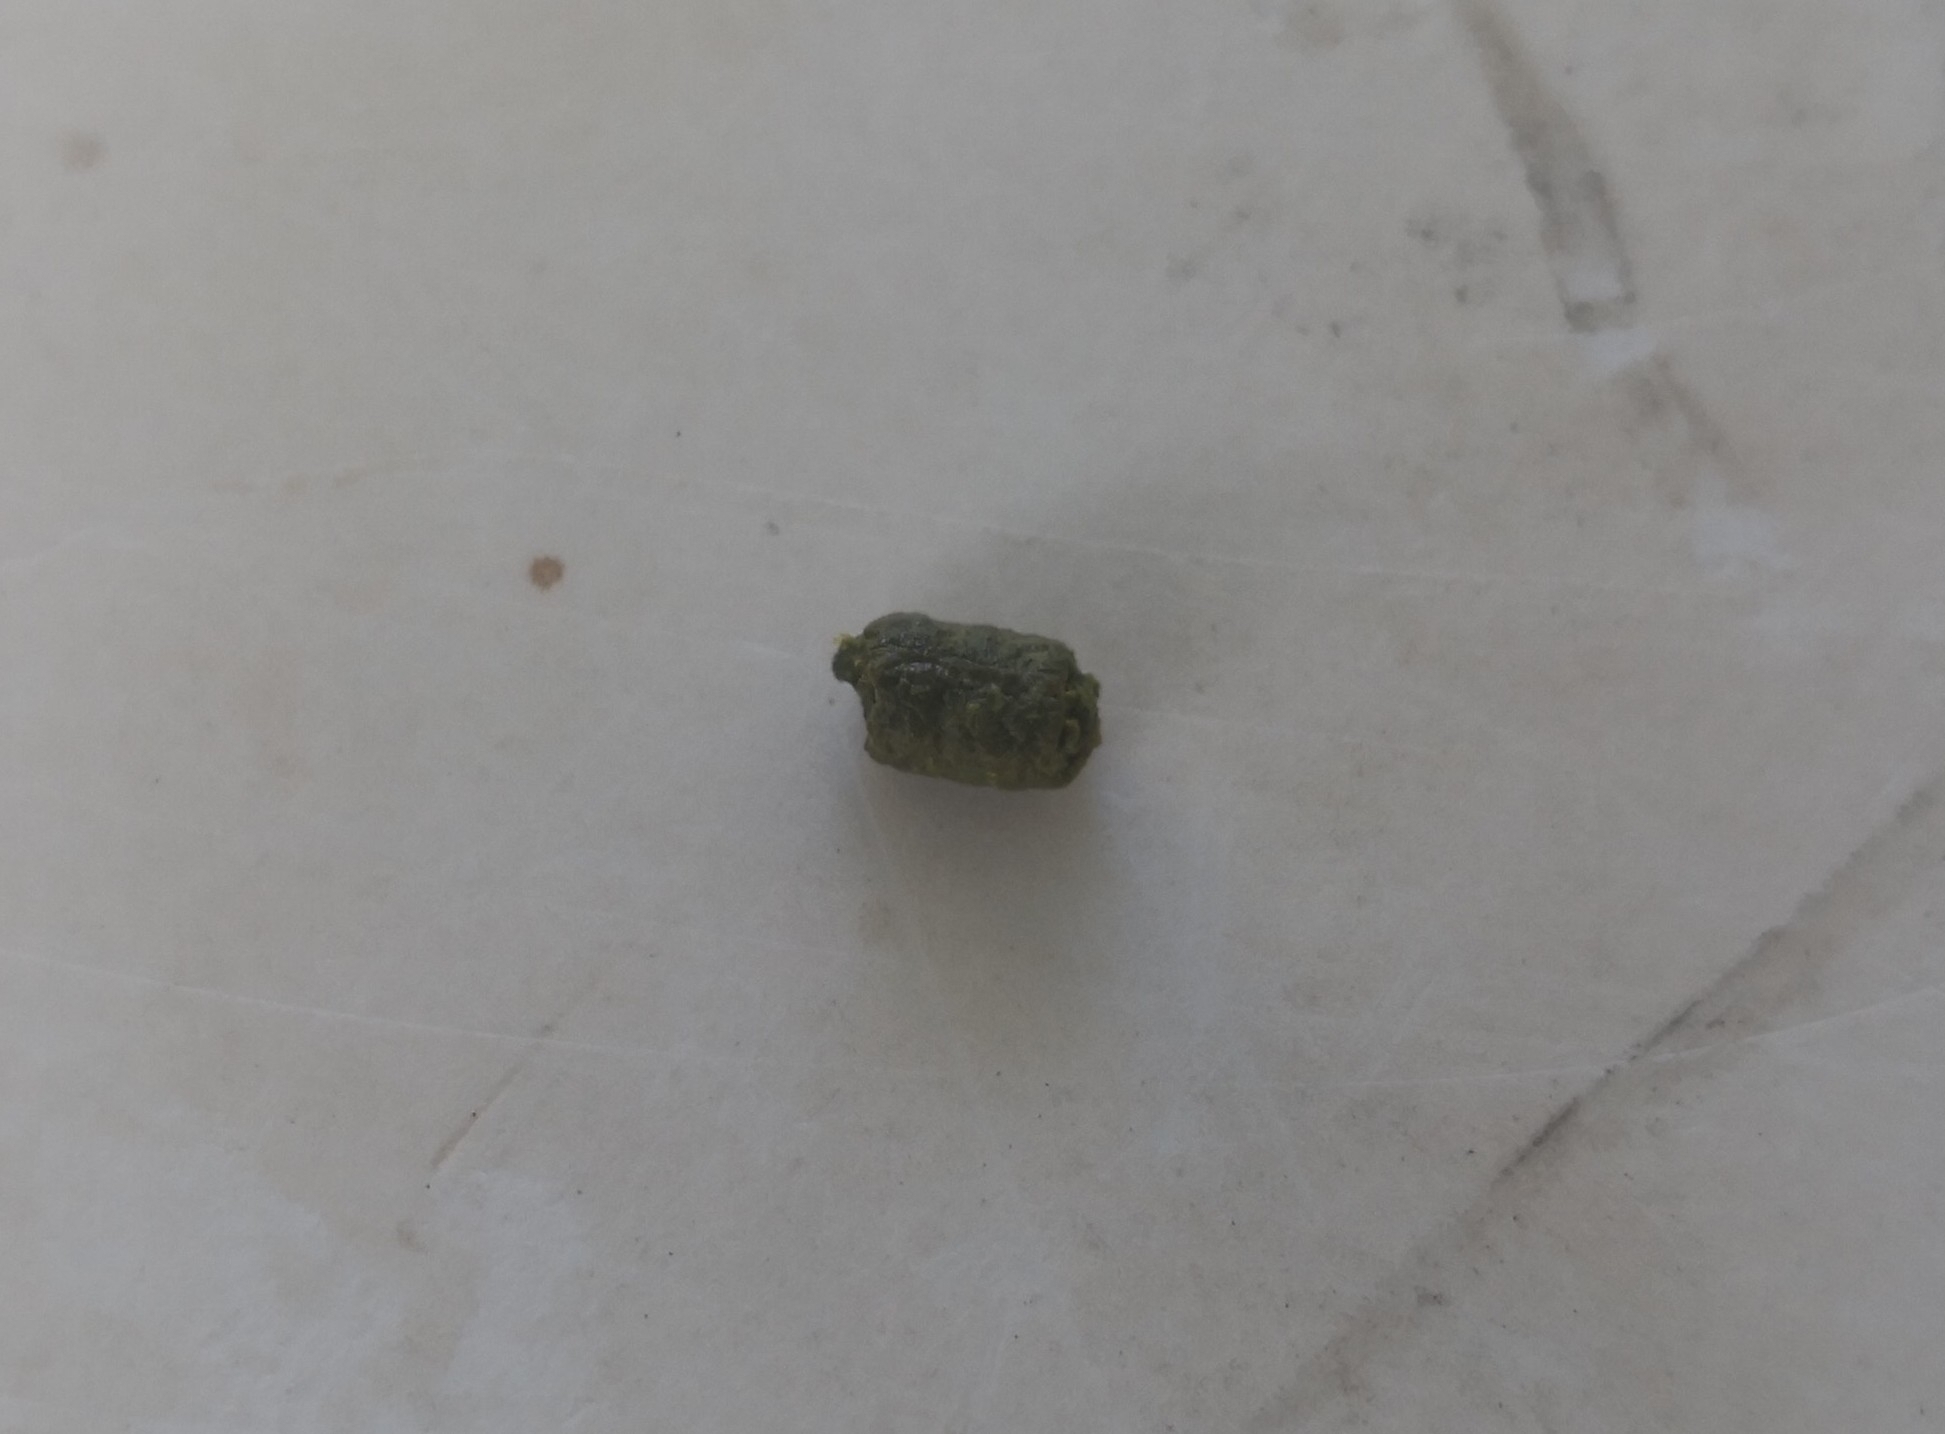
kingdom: Animalia
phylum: Arthropoda
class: Insecta
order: Orthoptera
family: Acrididae
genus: Anacridium
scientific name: Anacridium aegyptium
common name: Egyptian grasshopper
